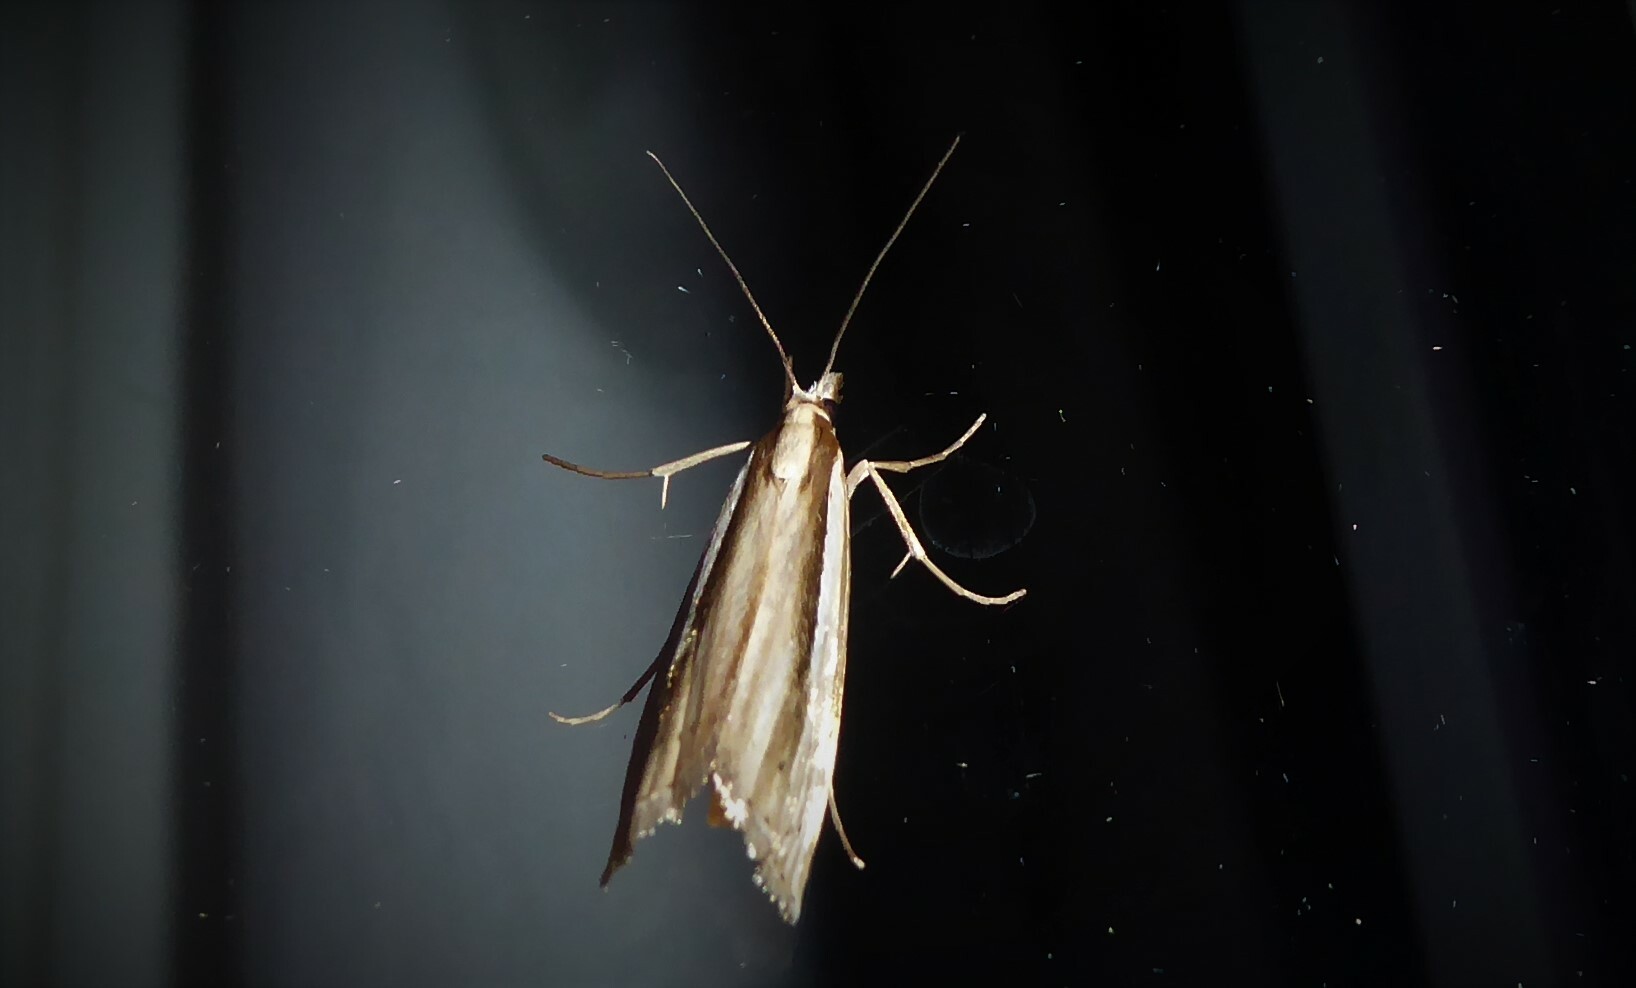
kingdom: Animalia
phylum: Arthropoda
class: Insecta
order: Lepidoptera
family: Crambidae
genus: Orocrambus
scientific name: Orocrambus ramosellus
